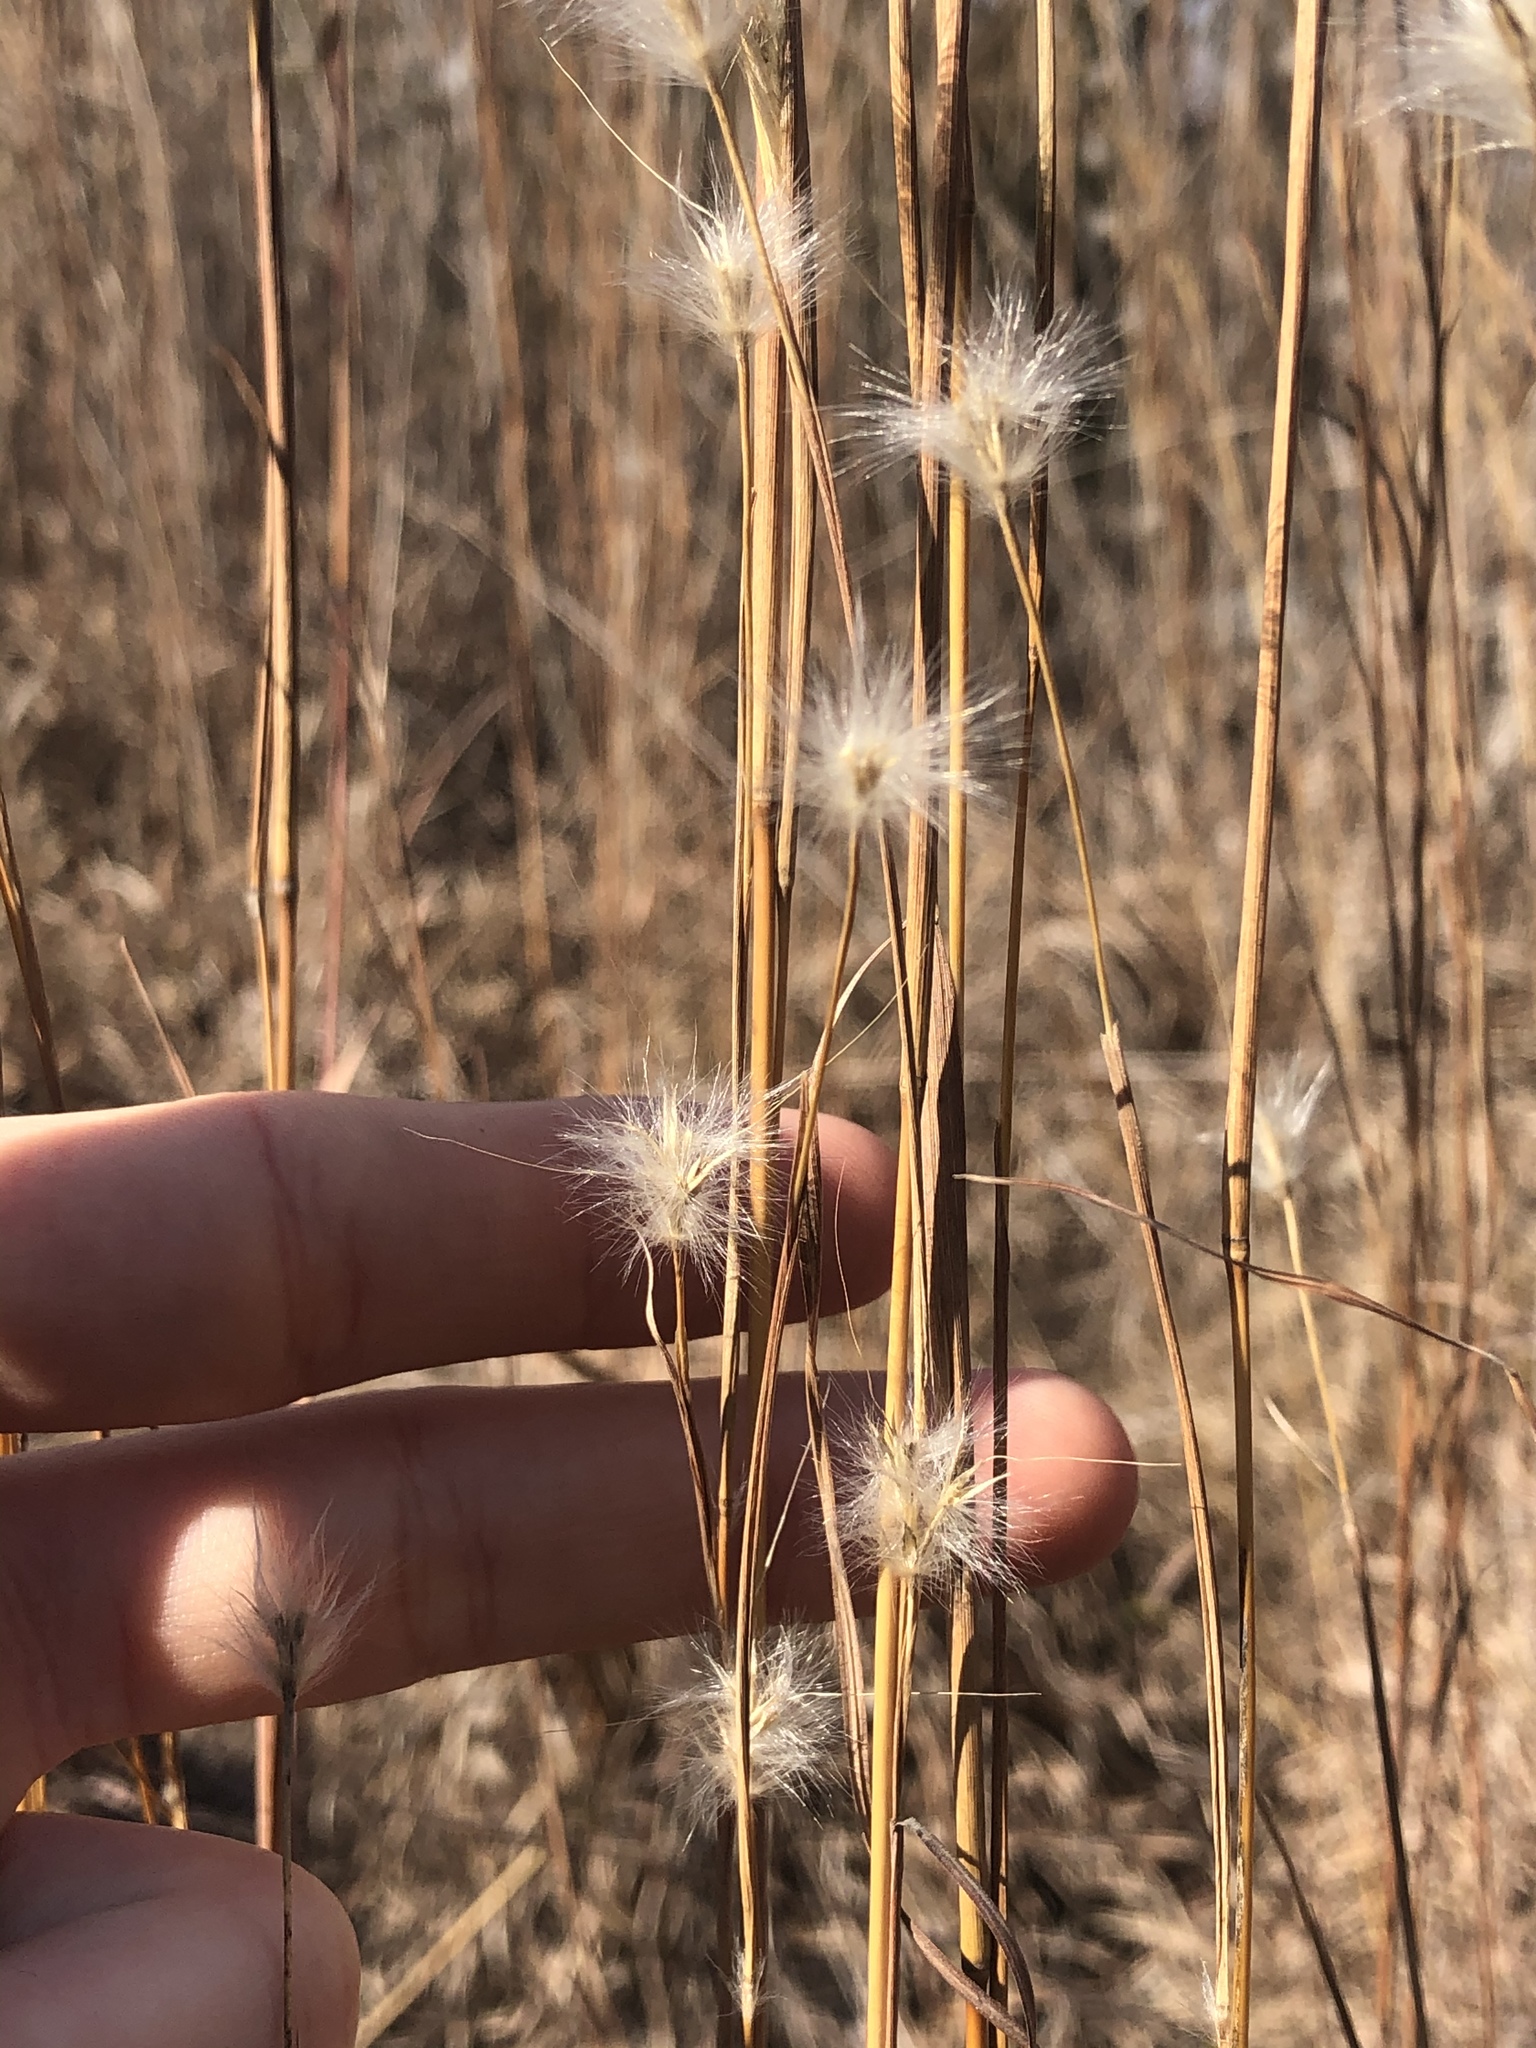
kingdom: Plantae
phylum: Tracheophyta
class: Liliopsida
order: Poales
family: Poaceae
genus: Andropogon
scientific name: Andropogon ternarius
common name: Split bluestem
